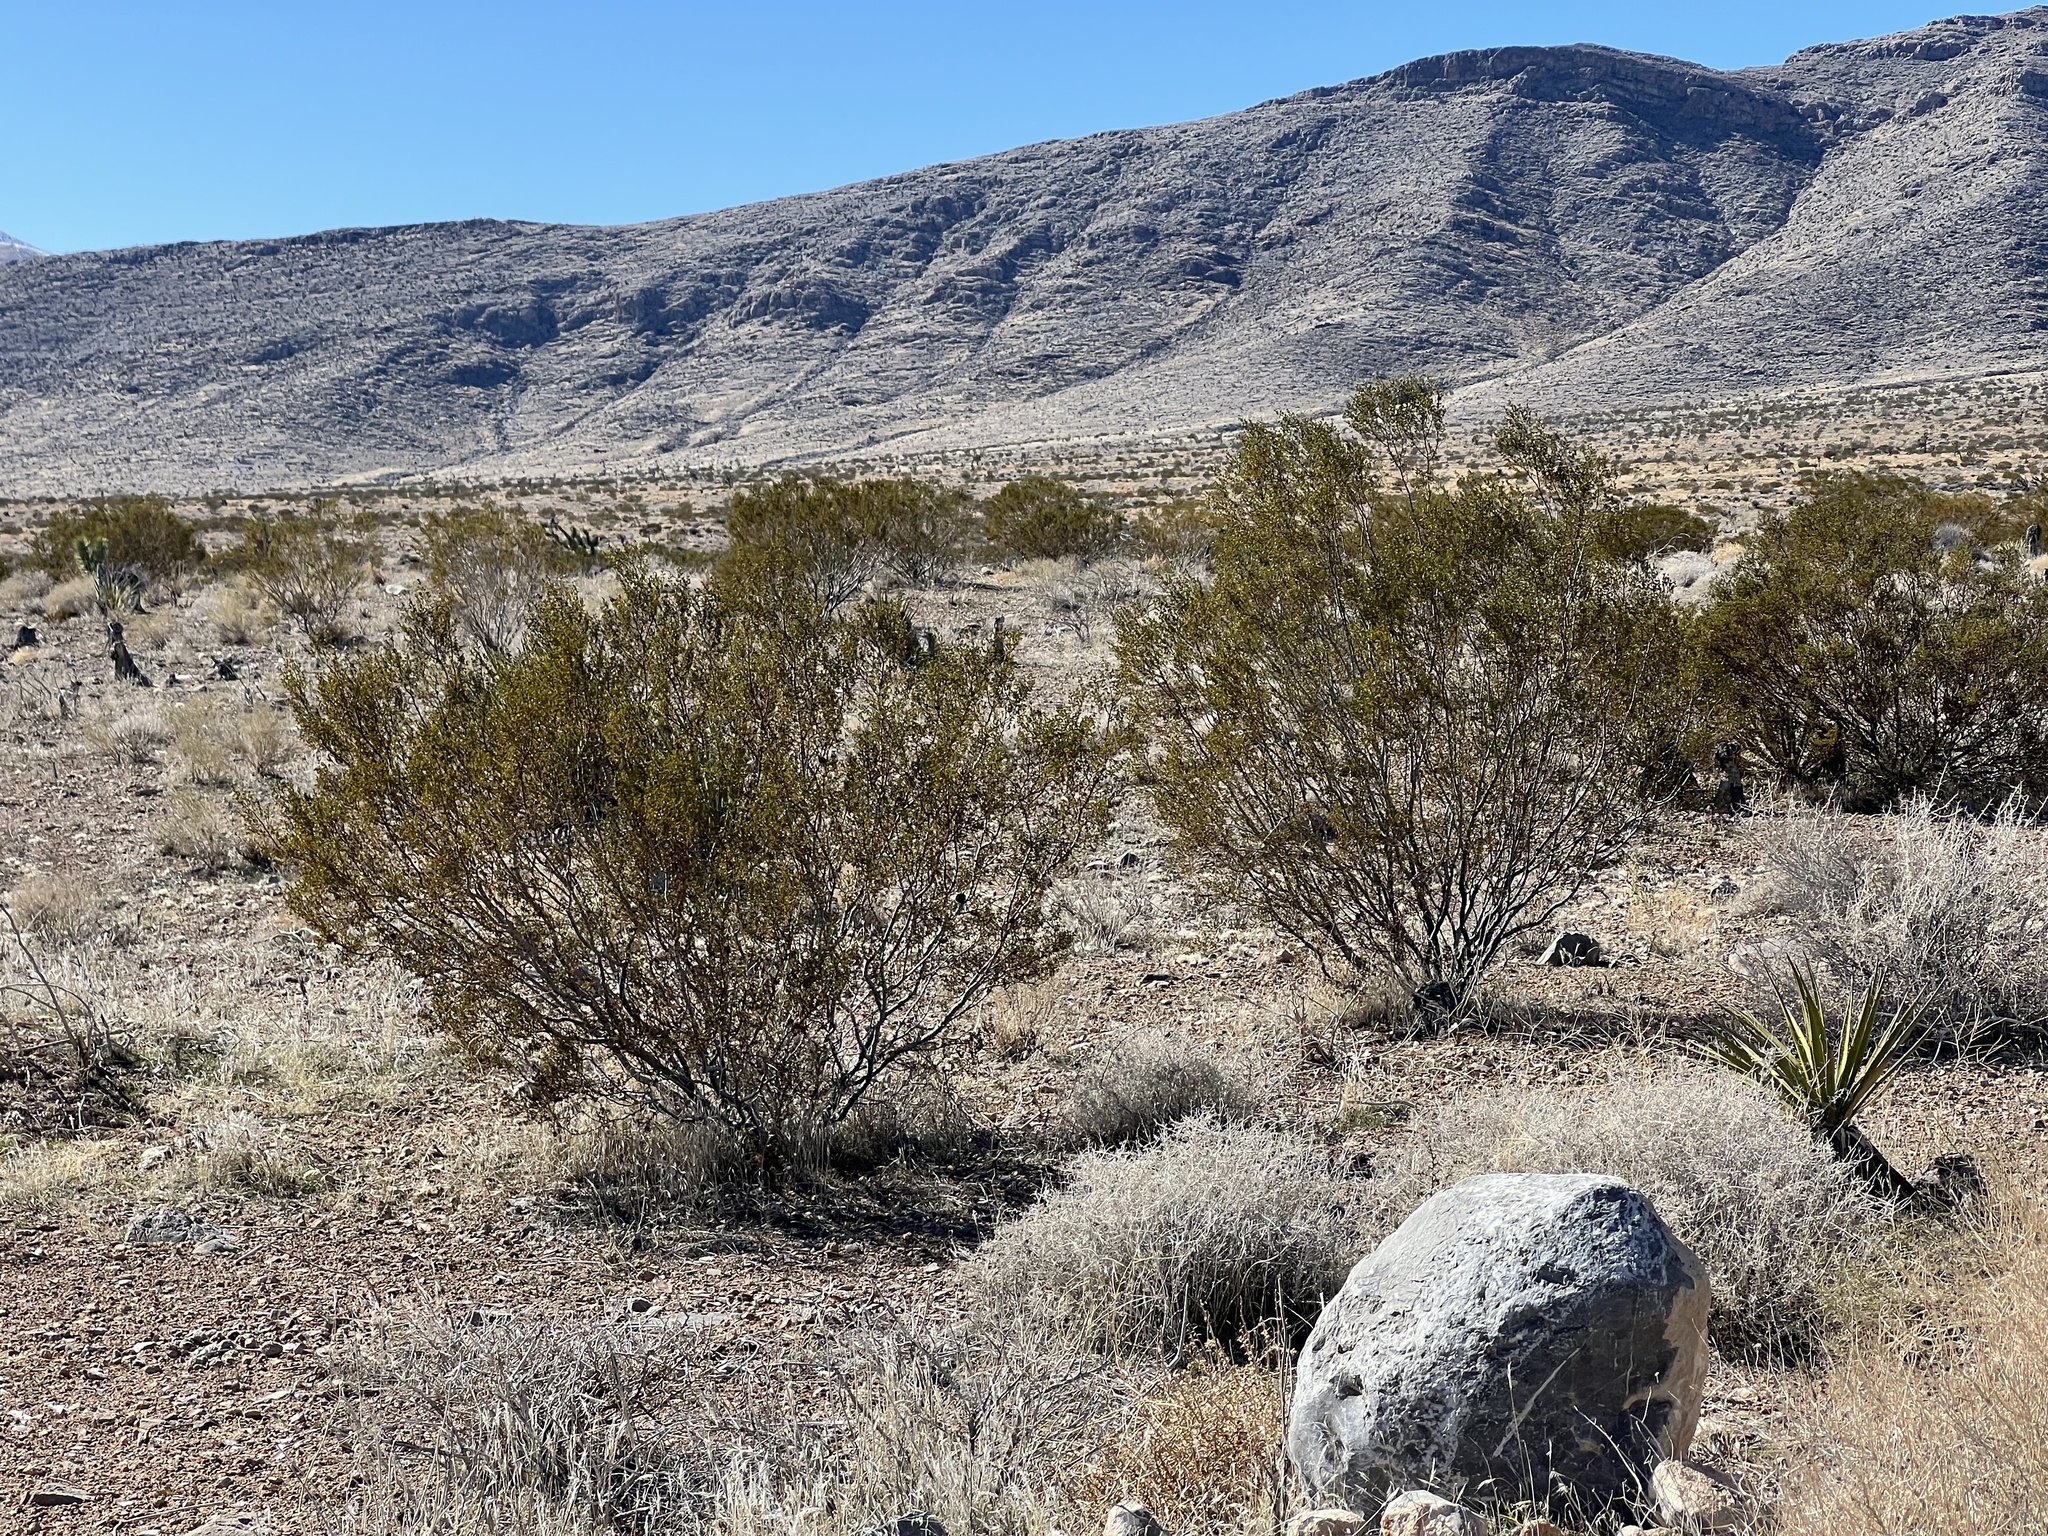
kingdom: Plantae
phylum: Tracheophyta
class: Magnoliopsida
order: Zygophyllales
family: Zygophyllaceae
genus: Larrea
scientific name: Larrea tridentata
